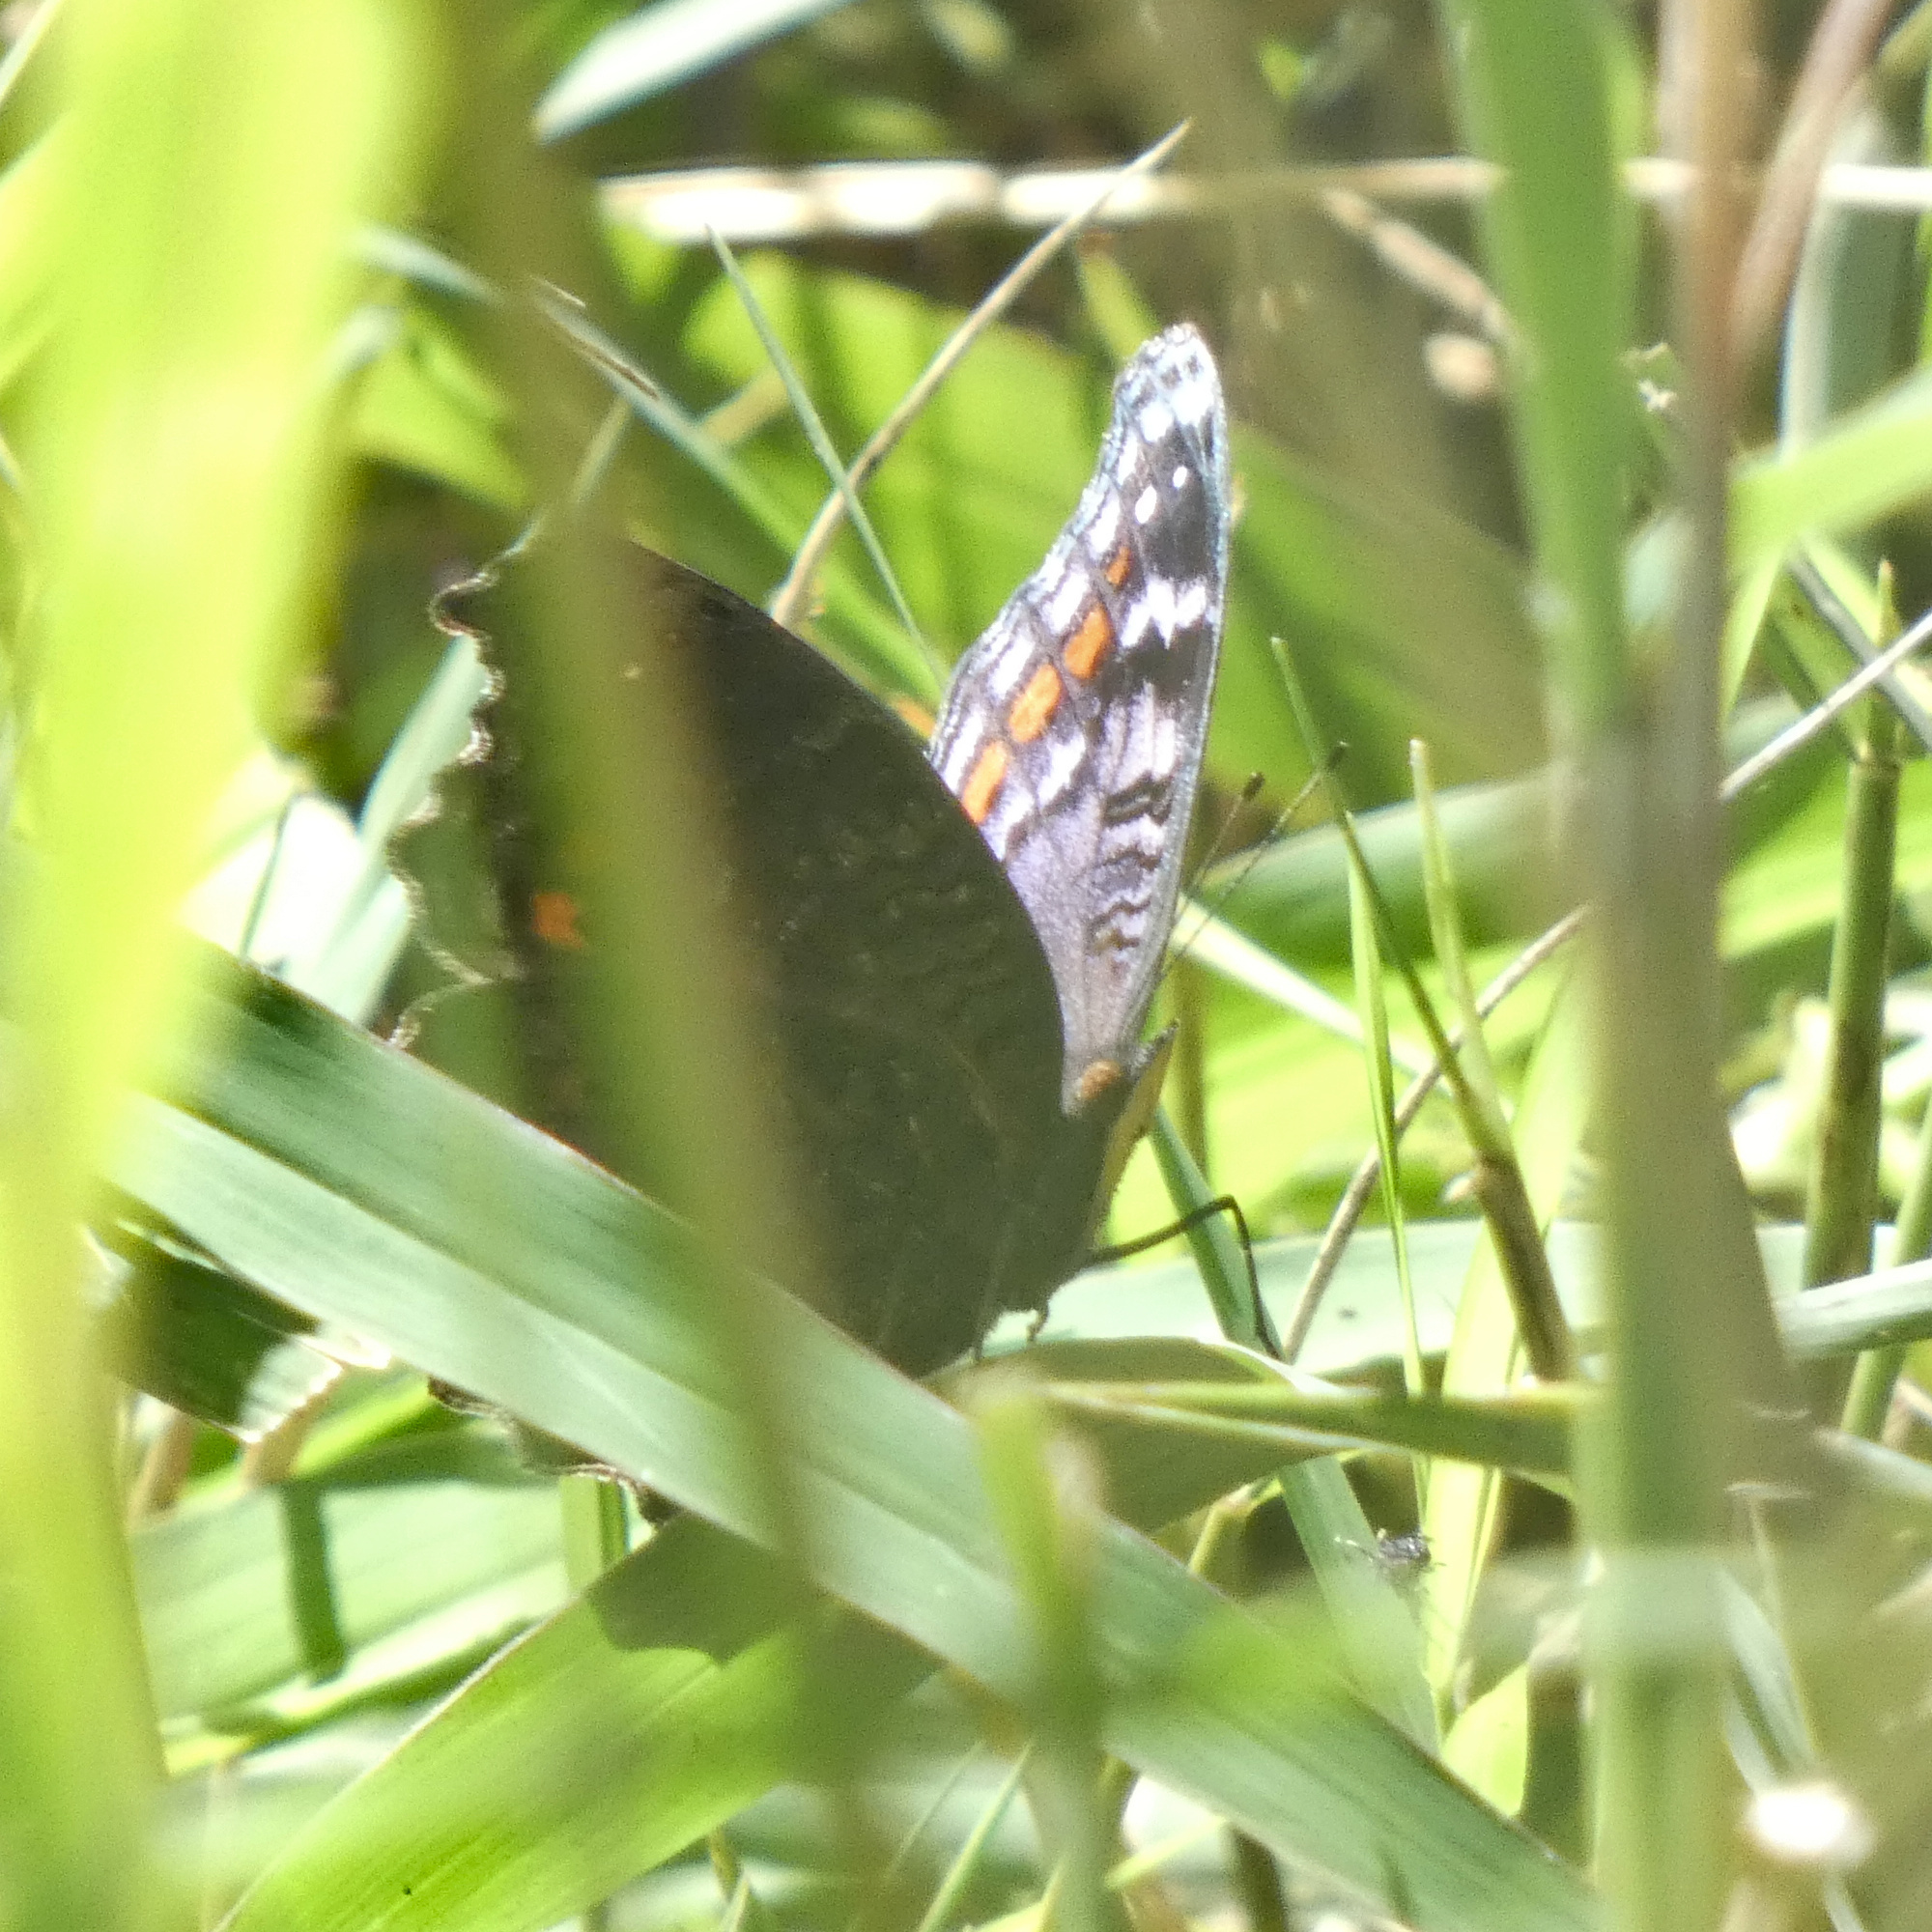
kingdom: Animalia
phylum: Arthropoda
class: Insecta
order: Lepidoptera
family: Nymphalidae
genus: Precis
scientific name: Precis octavia
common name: Gaudy commodore
